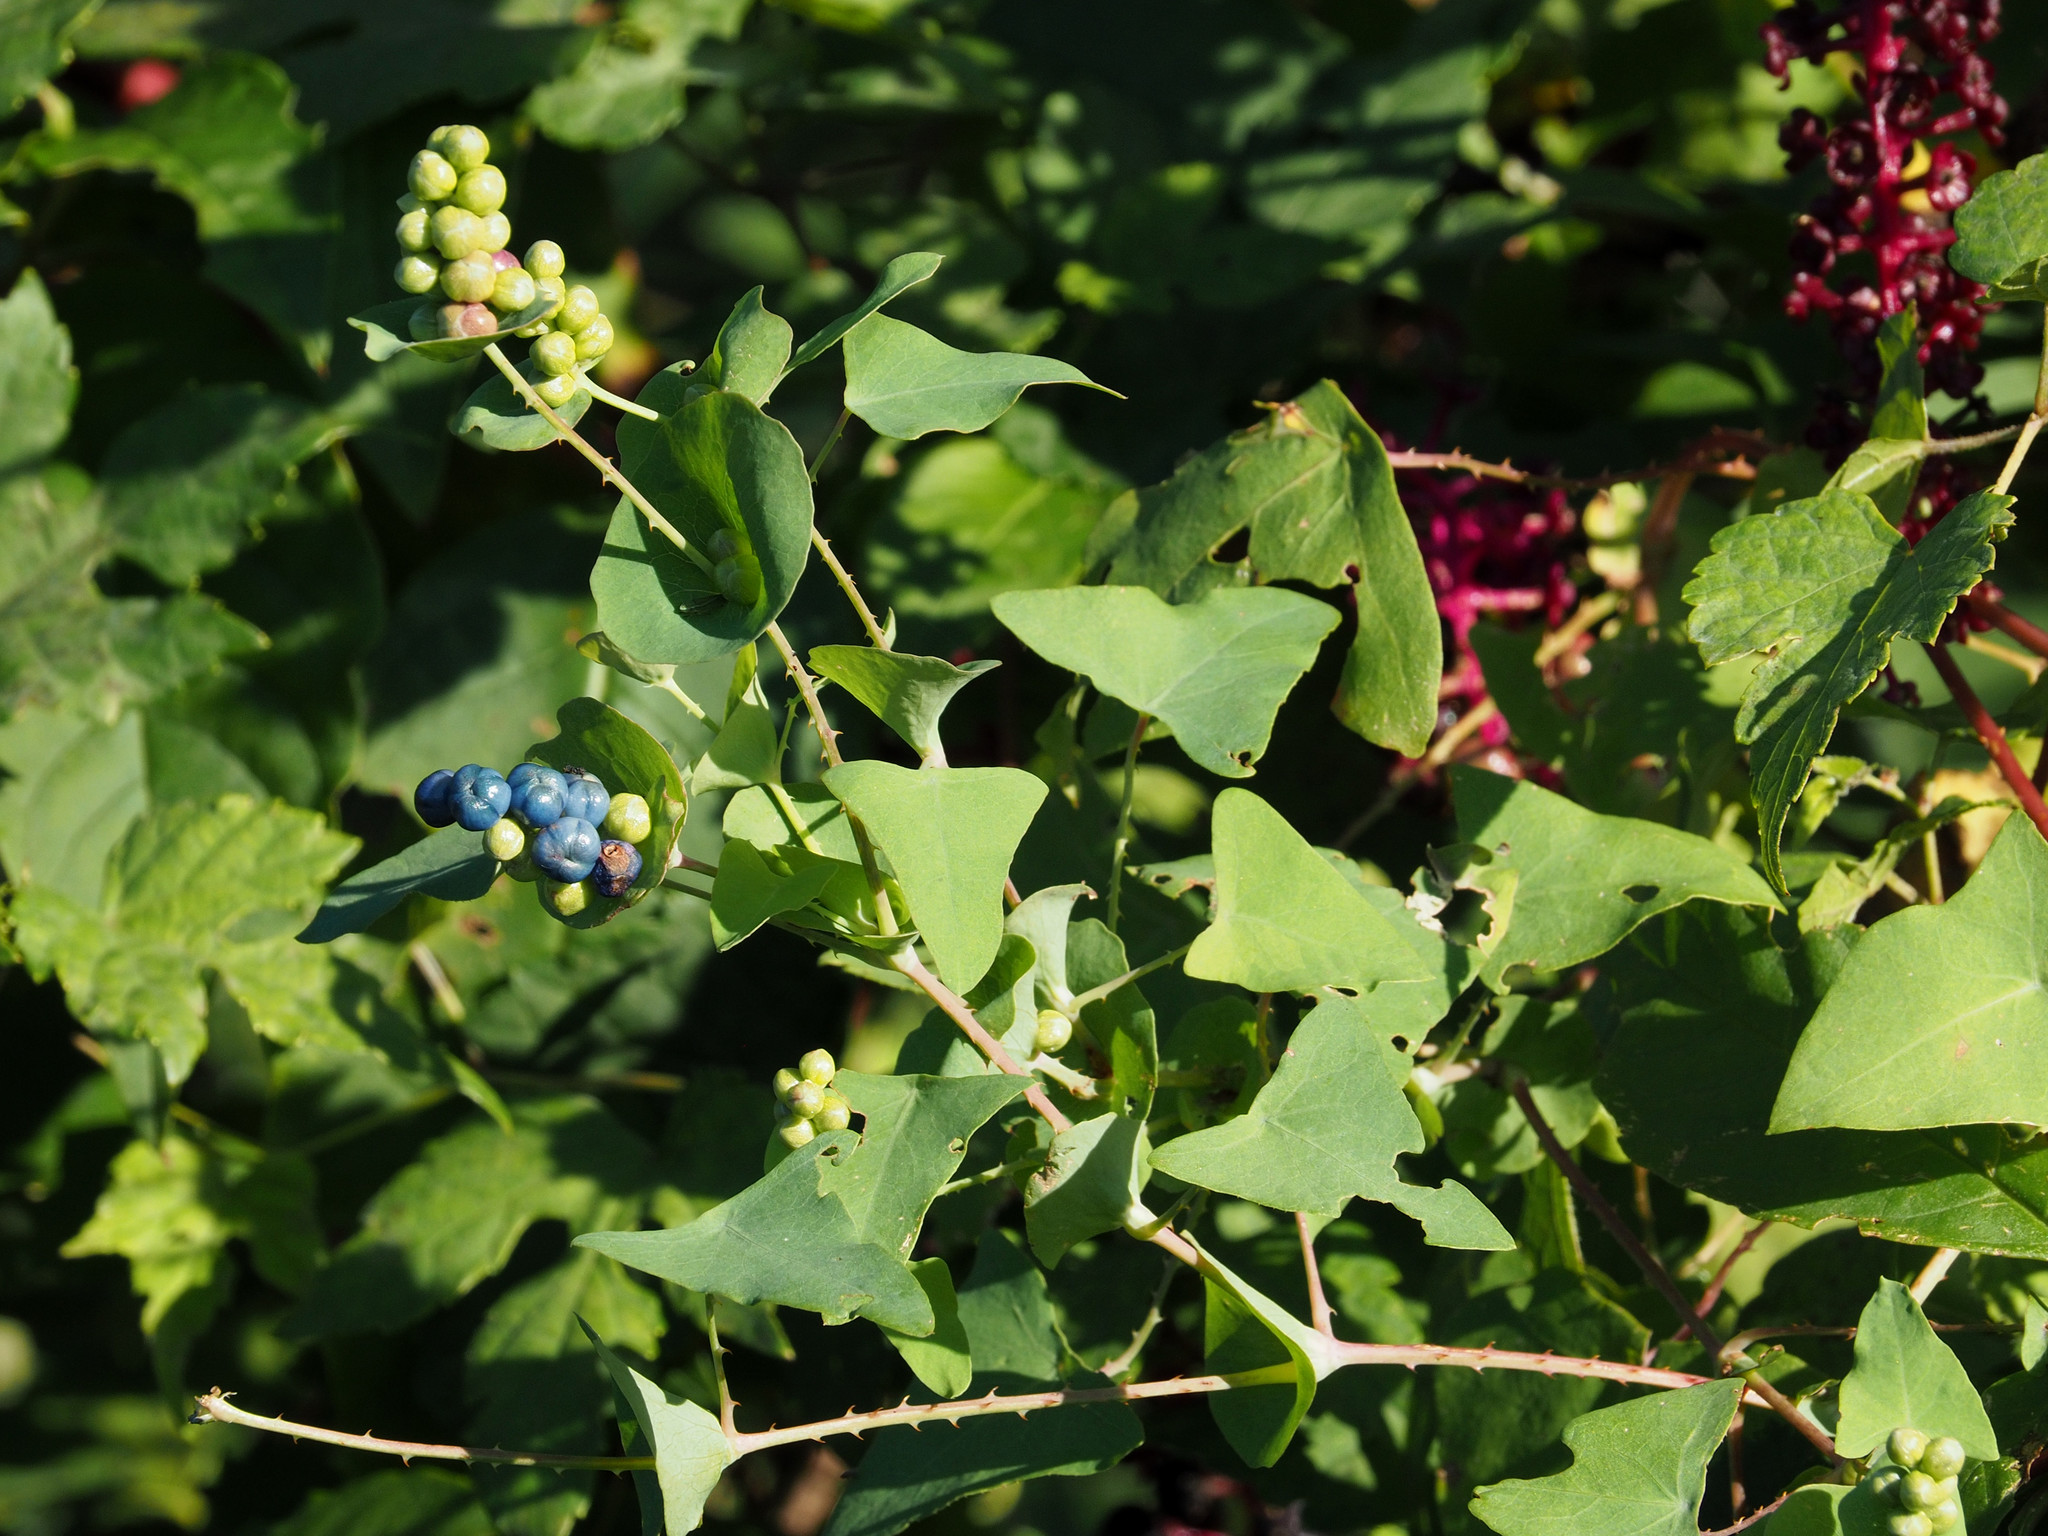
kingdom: Plantae
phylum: Tracheophyta
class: Magnoliopsida
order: Caryophyllales
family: Polygonaceae
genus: Persicaria
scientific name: Persicaria perfoliata
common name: Asiatic tearthumb
